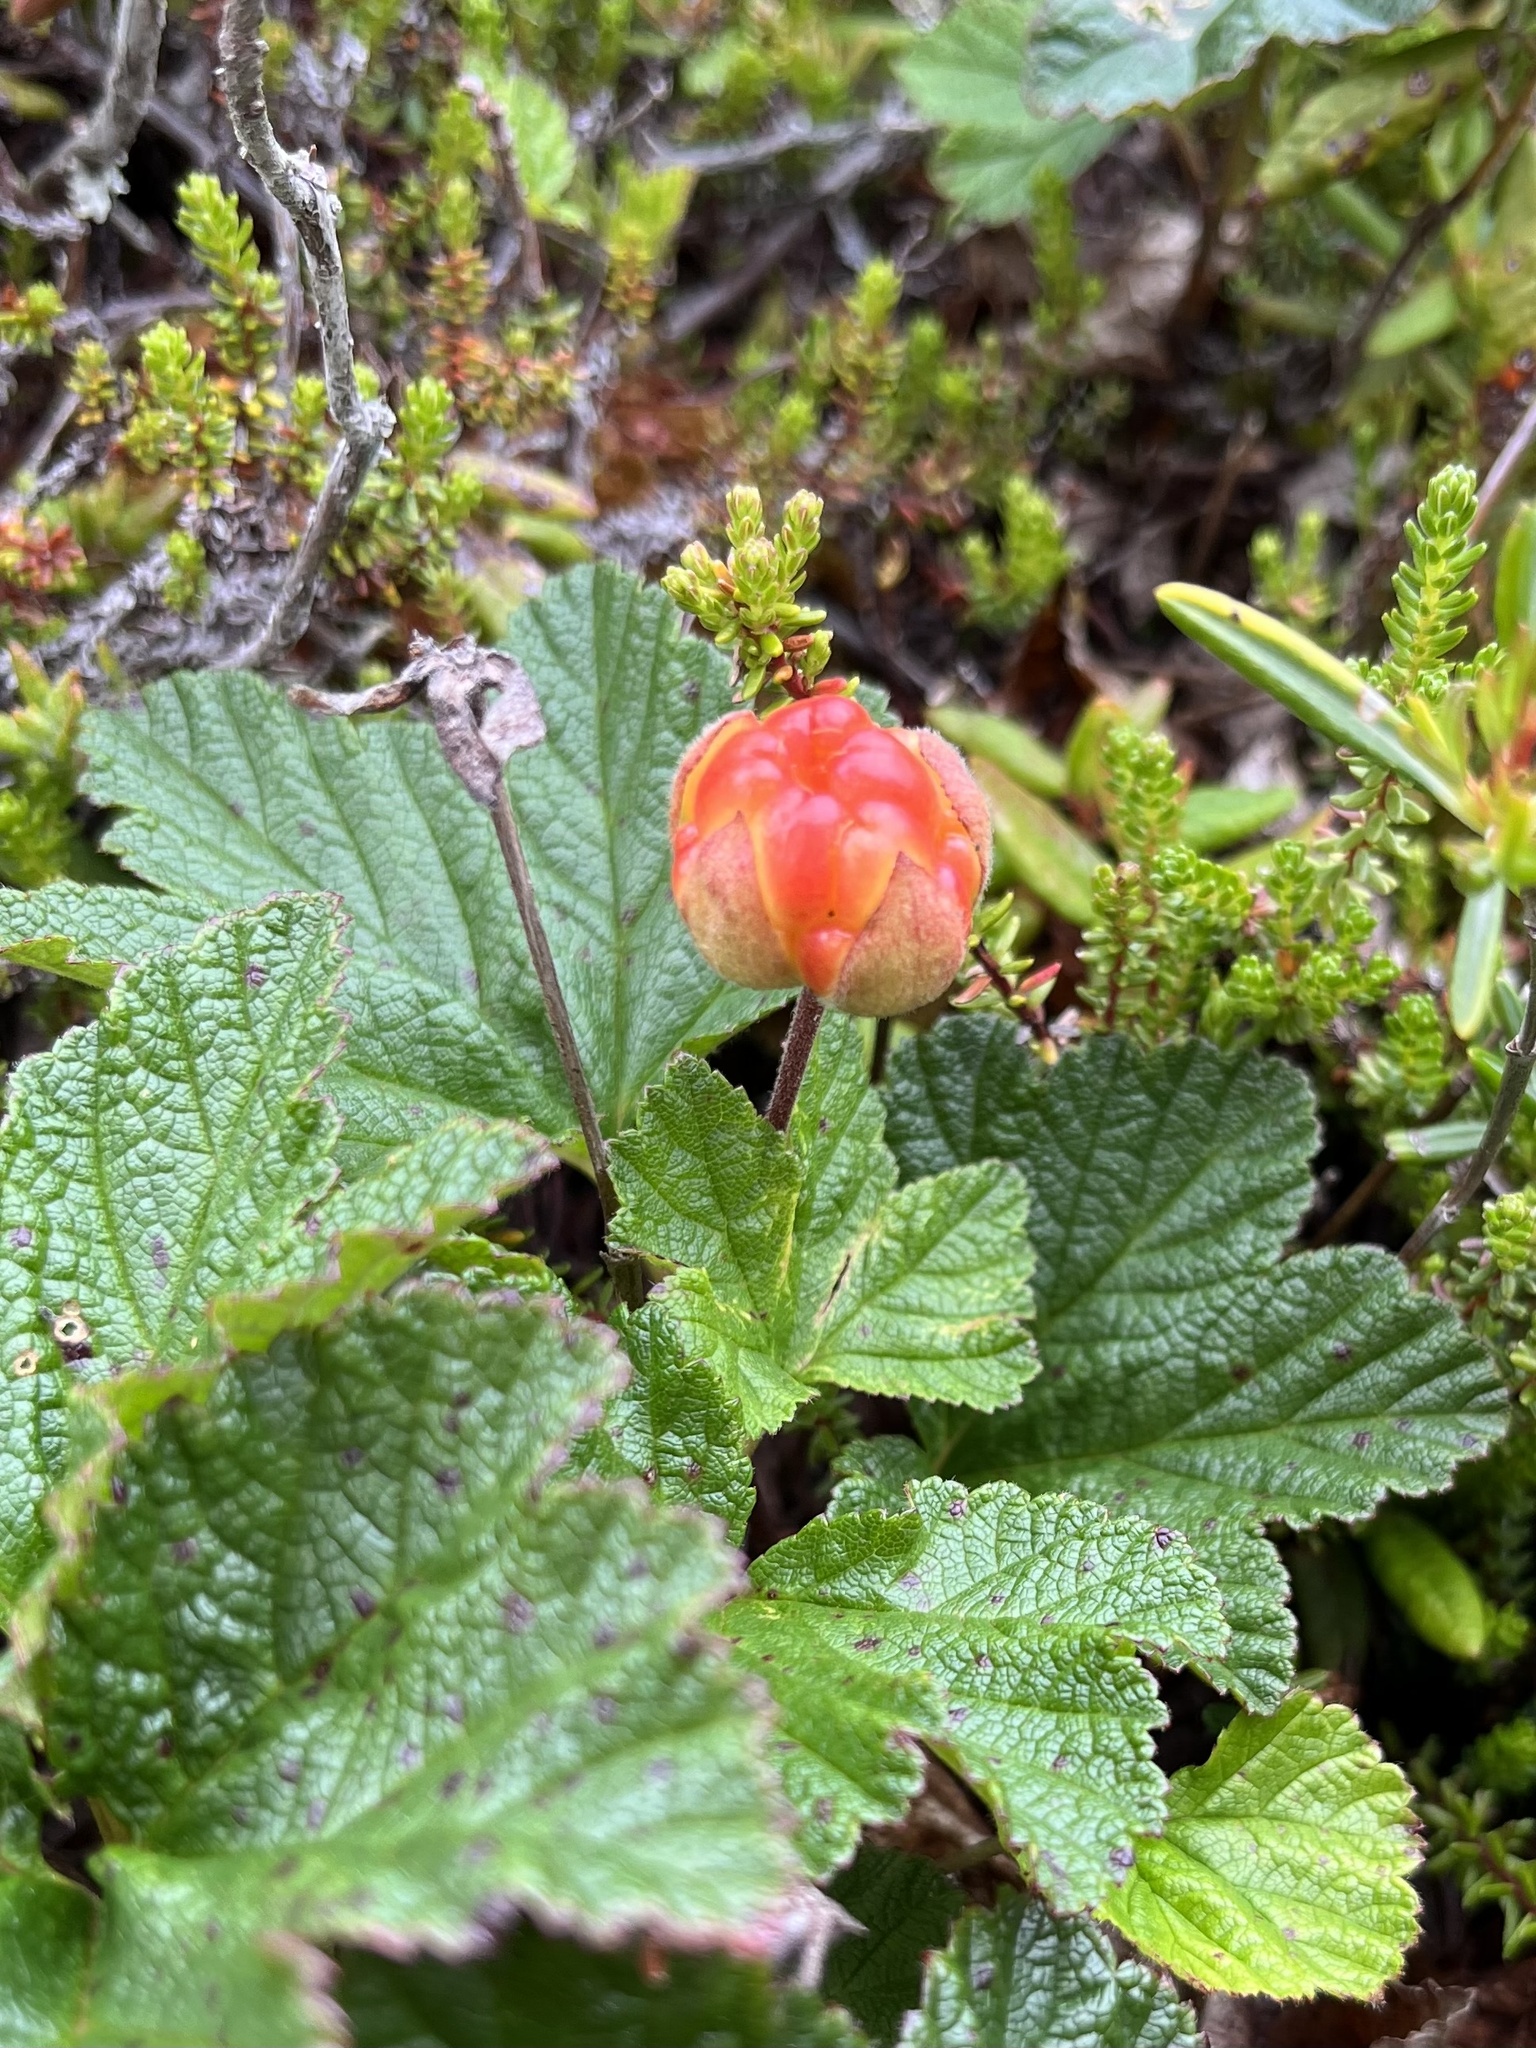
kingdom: Plantae
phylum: Tracheophyta
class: Magnoliopsida
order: Rosales
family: Rosaceae
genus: Rubus
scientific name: Rubus chamaemorus
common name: Cloudberry
